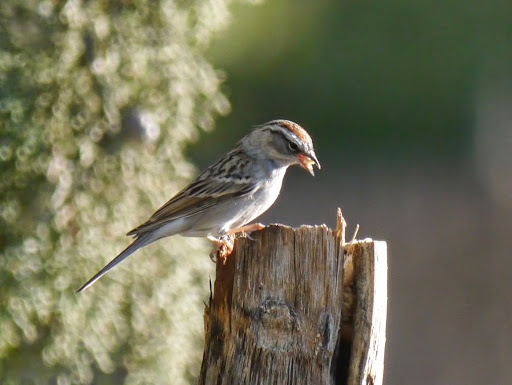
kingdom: Animalia
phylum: Chordata
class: Aves
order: Passeriformes
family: Passerellidae
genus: Spizella
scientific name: Spizella passerina
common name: Chipping sparrow
